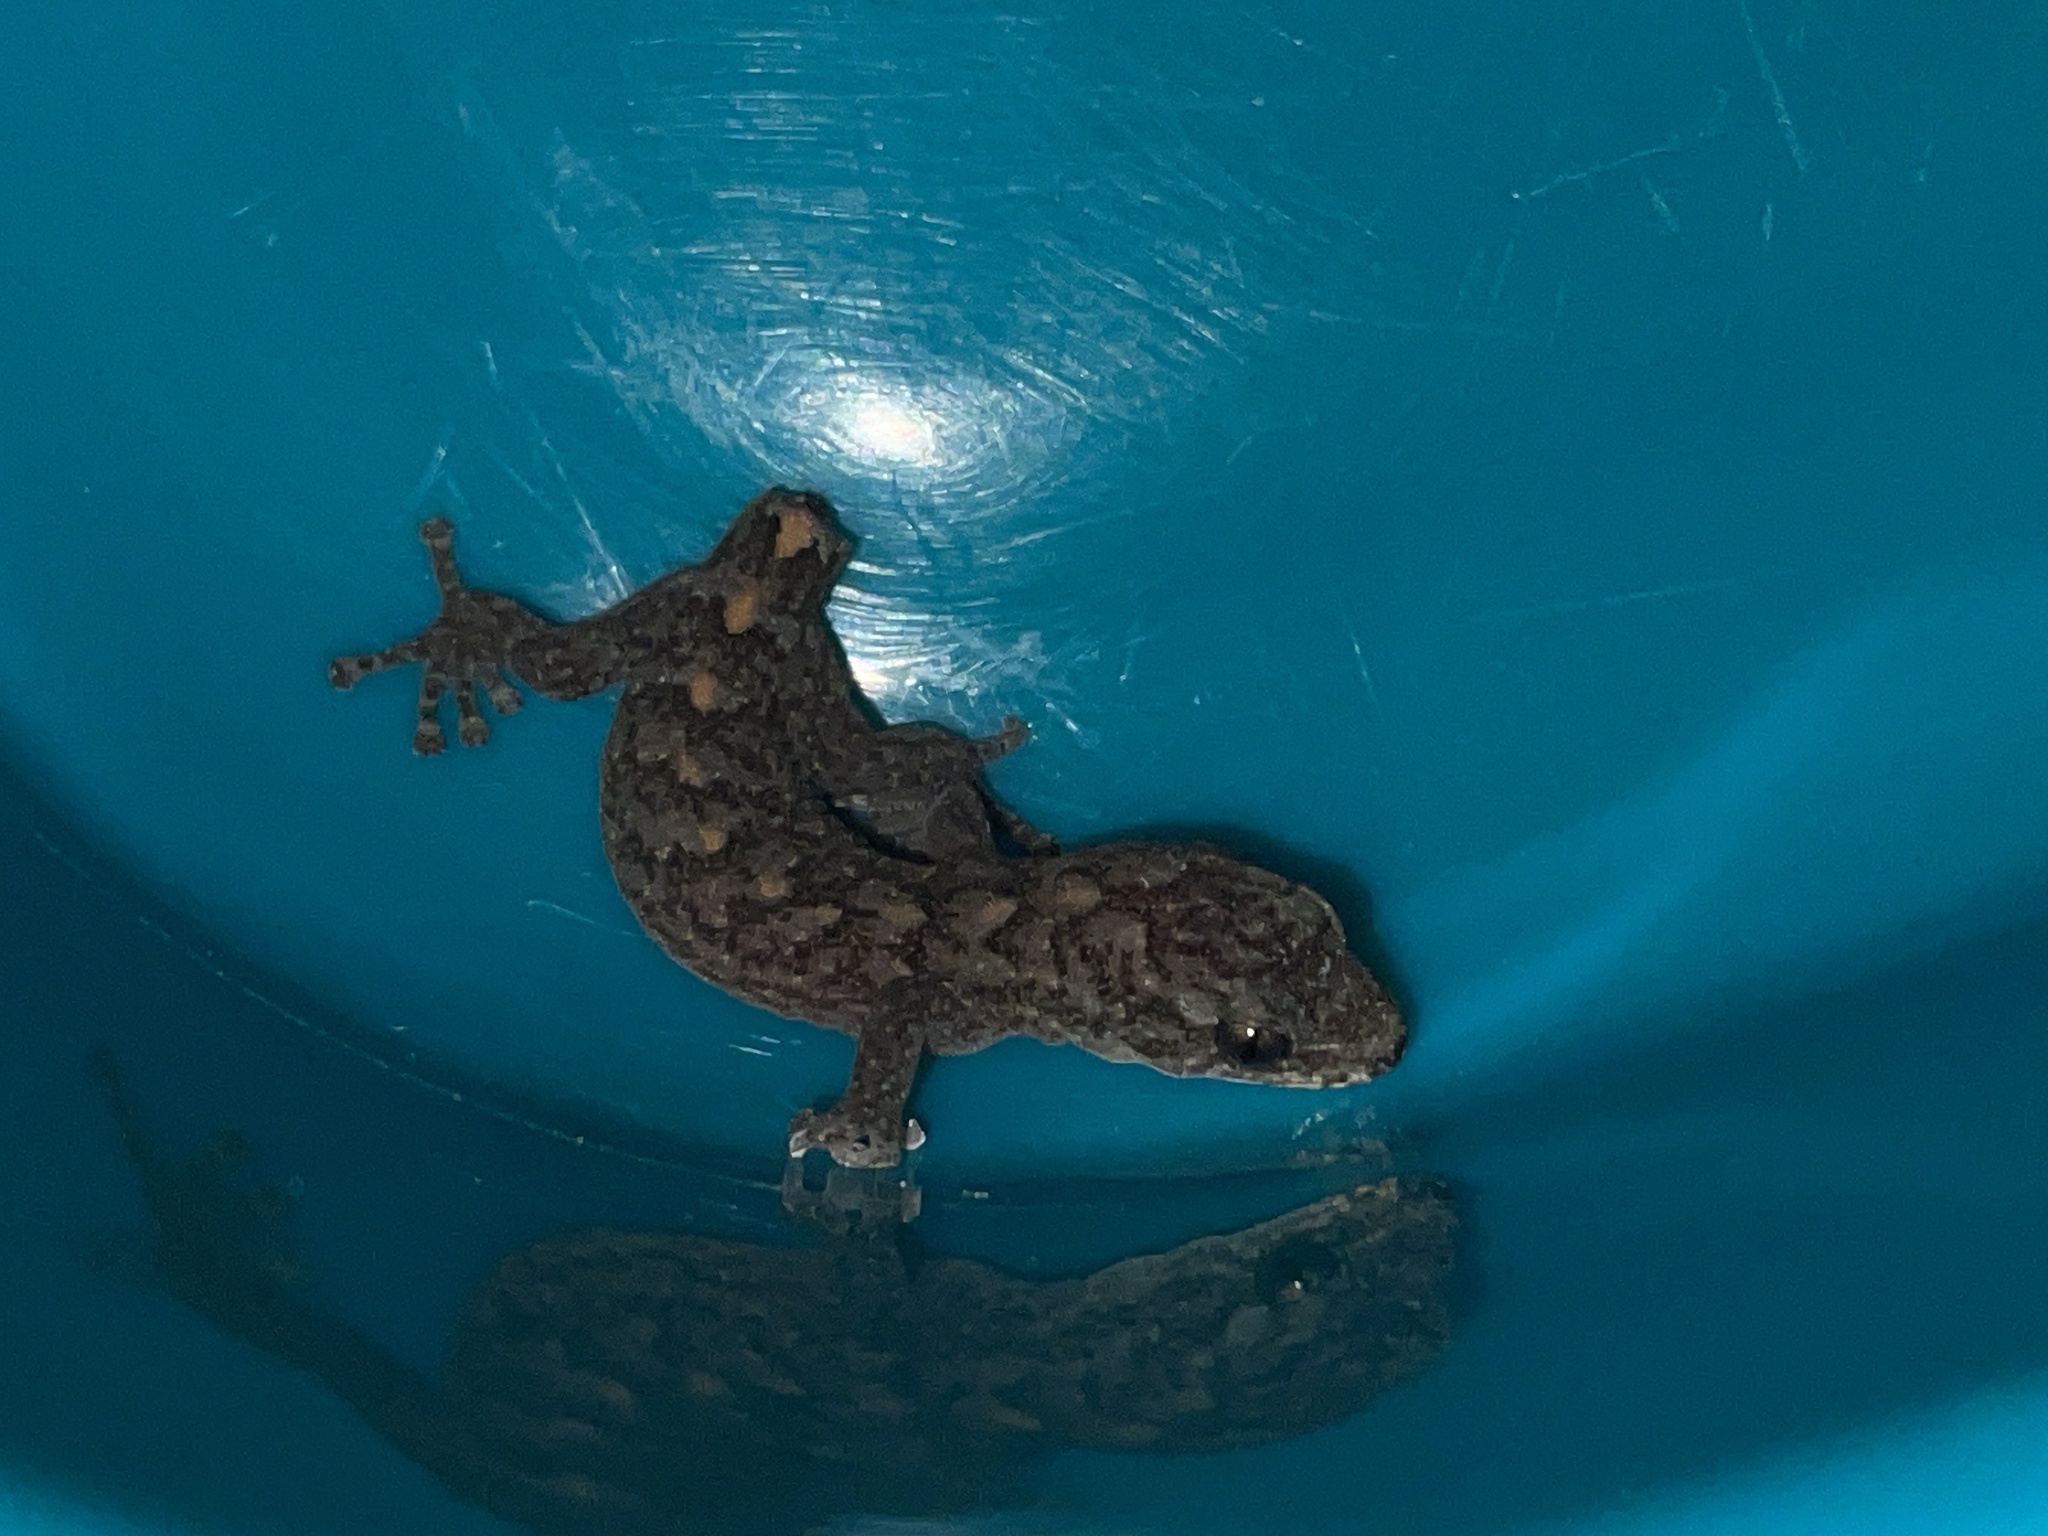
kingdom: Animalia
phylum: Chordata
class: Squamata
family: Gekkonidae
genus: Christinus
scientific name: Christinus marmoratus
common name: Marbled gecko
